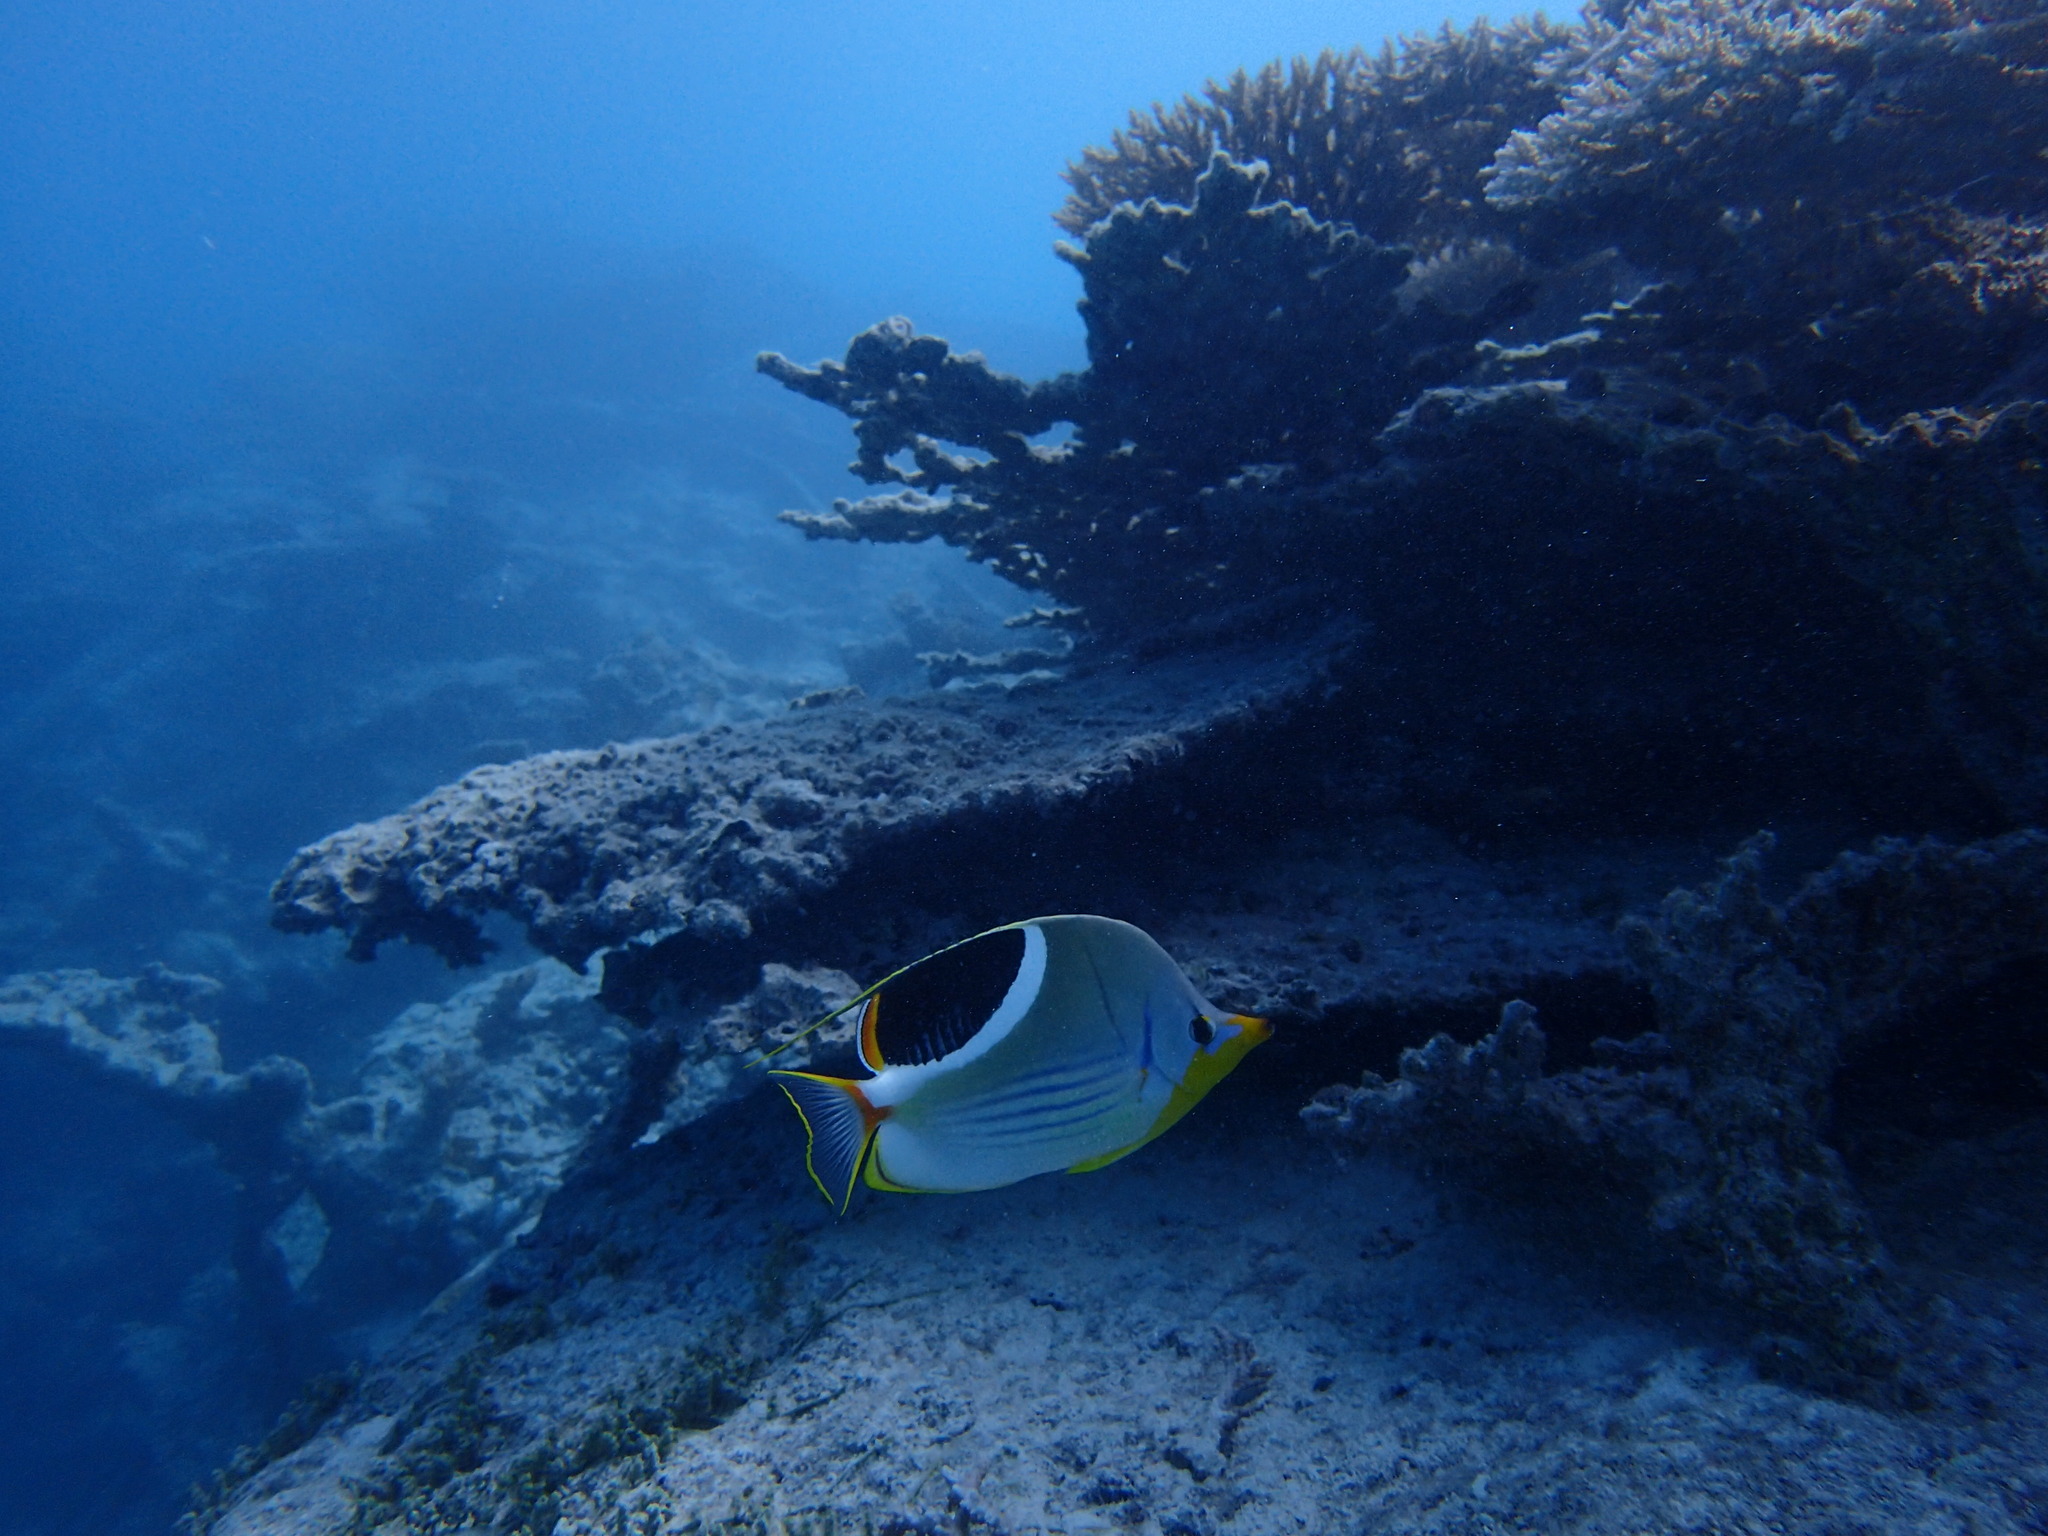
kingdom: Animalia
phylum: Chordata
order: Perciformes
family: Chaetodontidae
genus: Chaetodon
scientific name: Chaetodon ephippium
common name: Saddled butterflyfish
